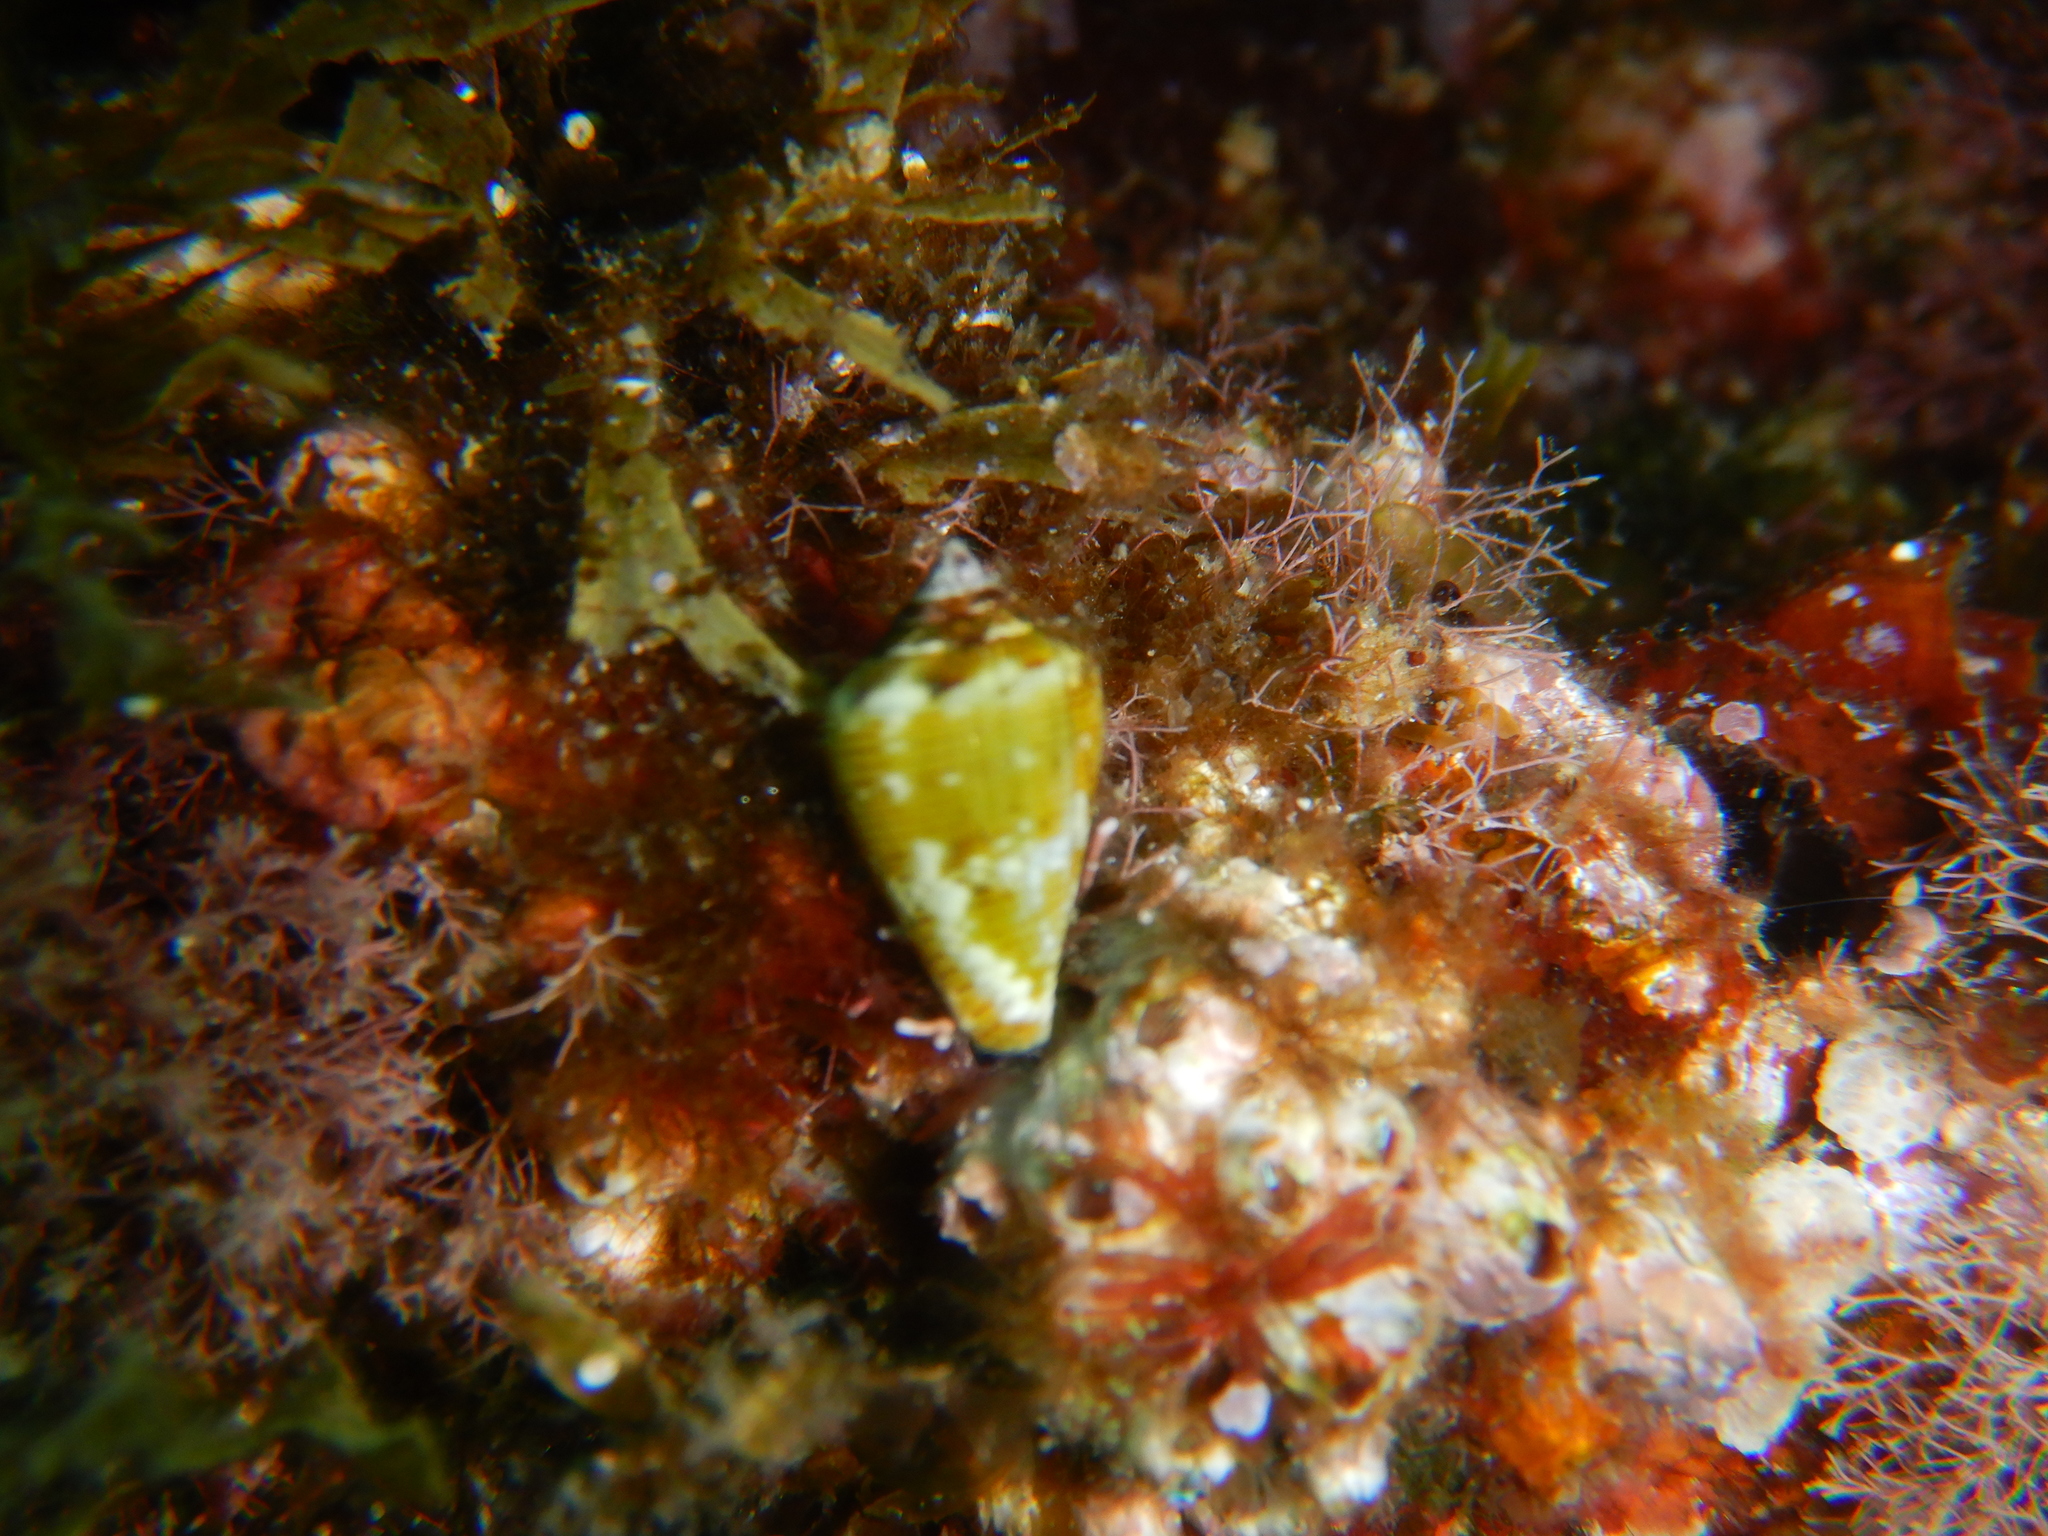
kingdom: Animalia
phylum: Mollusca
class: Gastropoda
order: Neogastropoda
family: Conidae
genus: Conus
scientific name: Conus ventricosus
